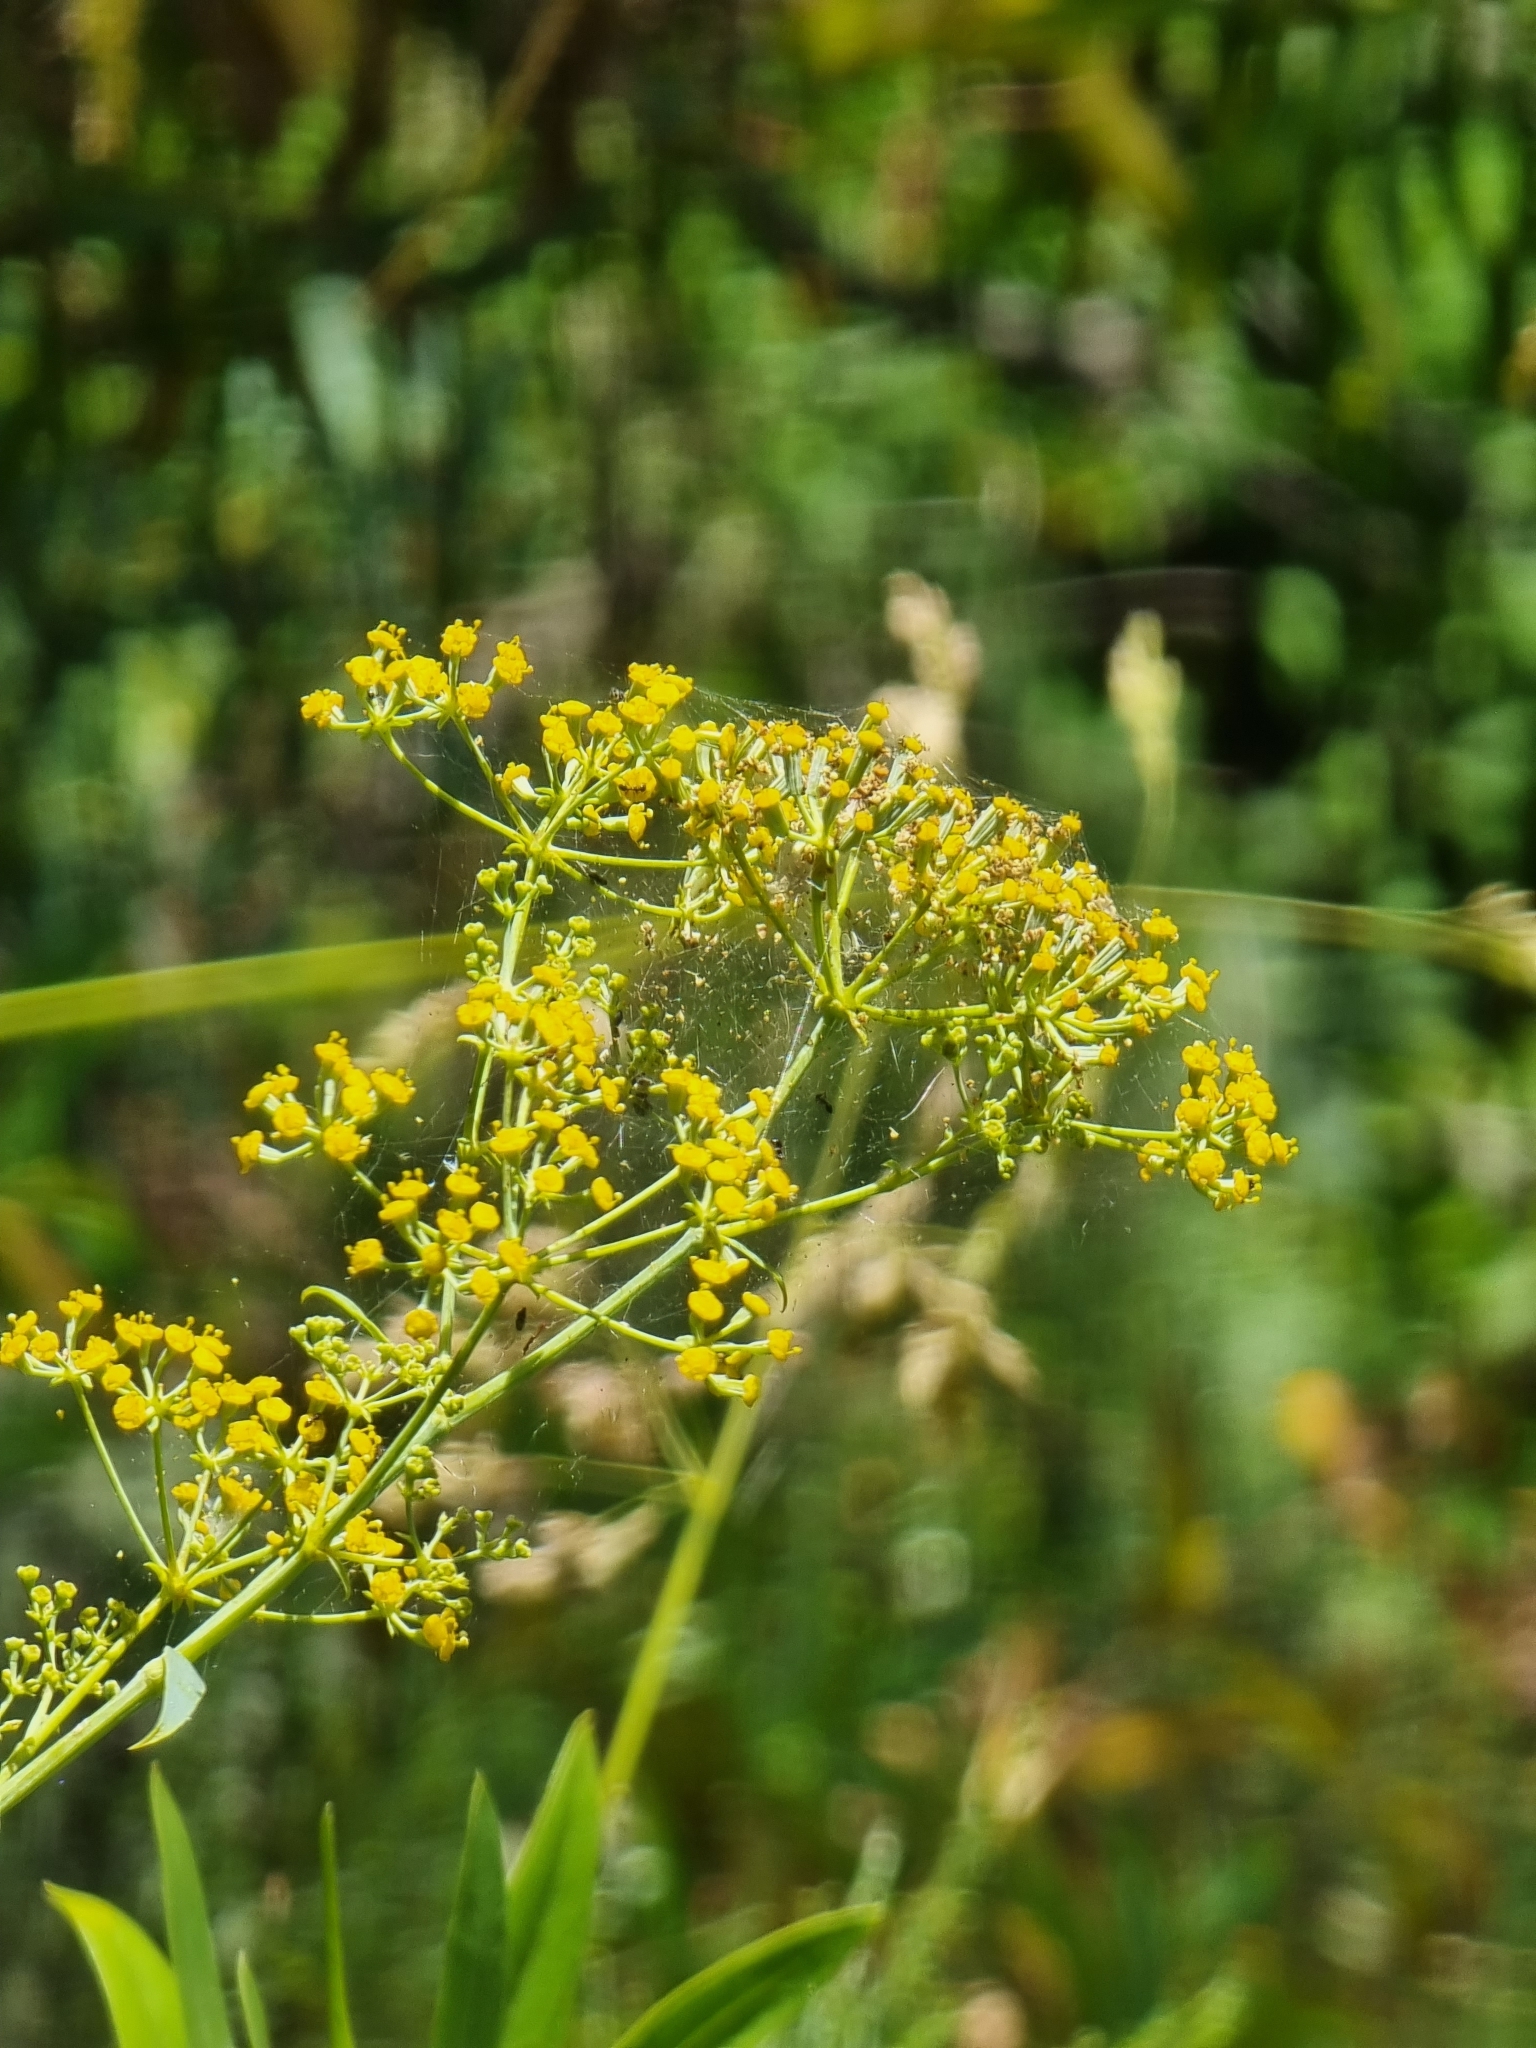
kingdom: Plantae
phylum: Tracheophyta
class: Magnoliopsida
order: Apiales
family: Apiaceae
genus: Bupleurum
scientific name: Bupleurum salicifolium
